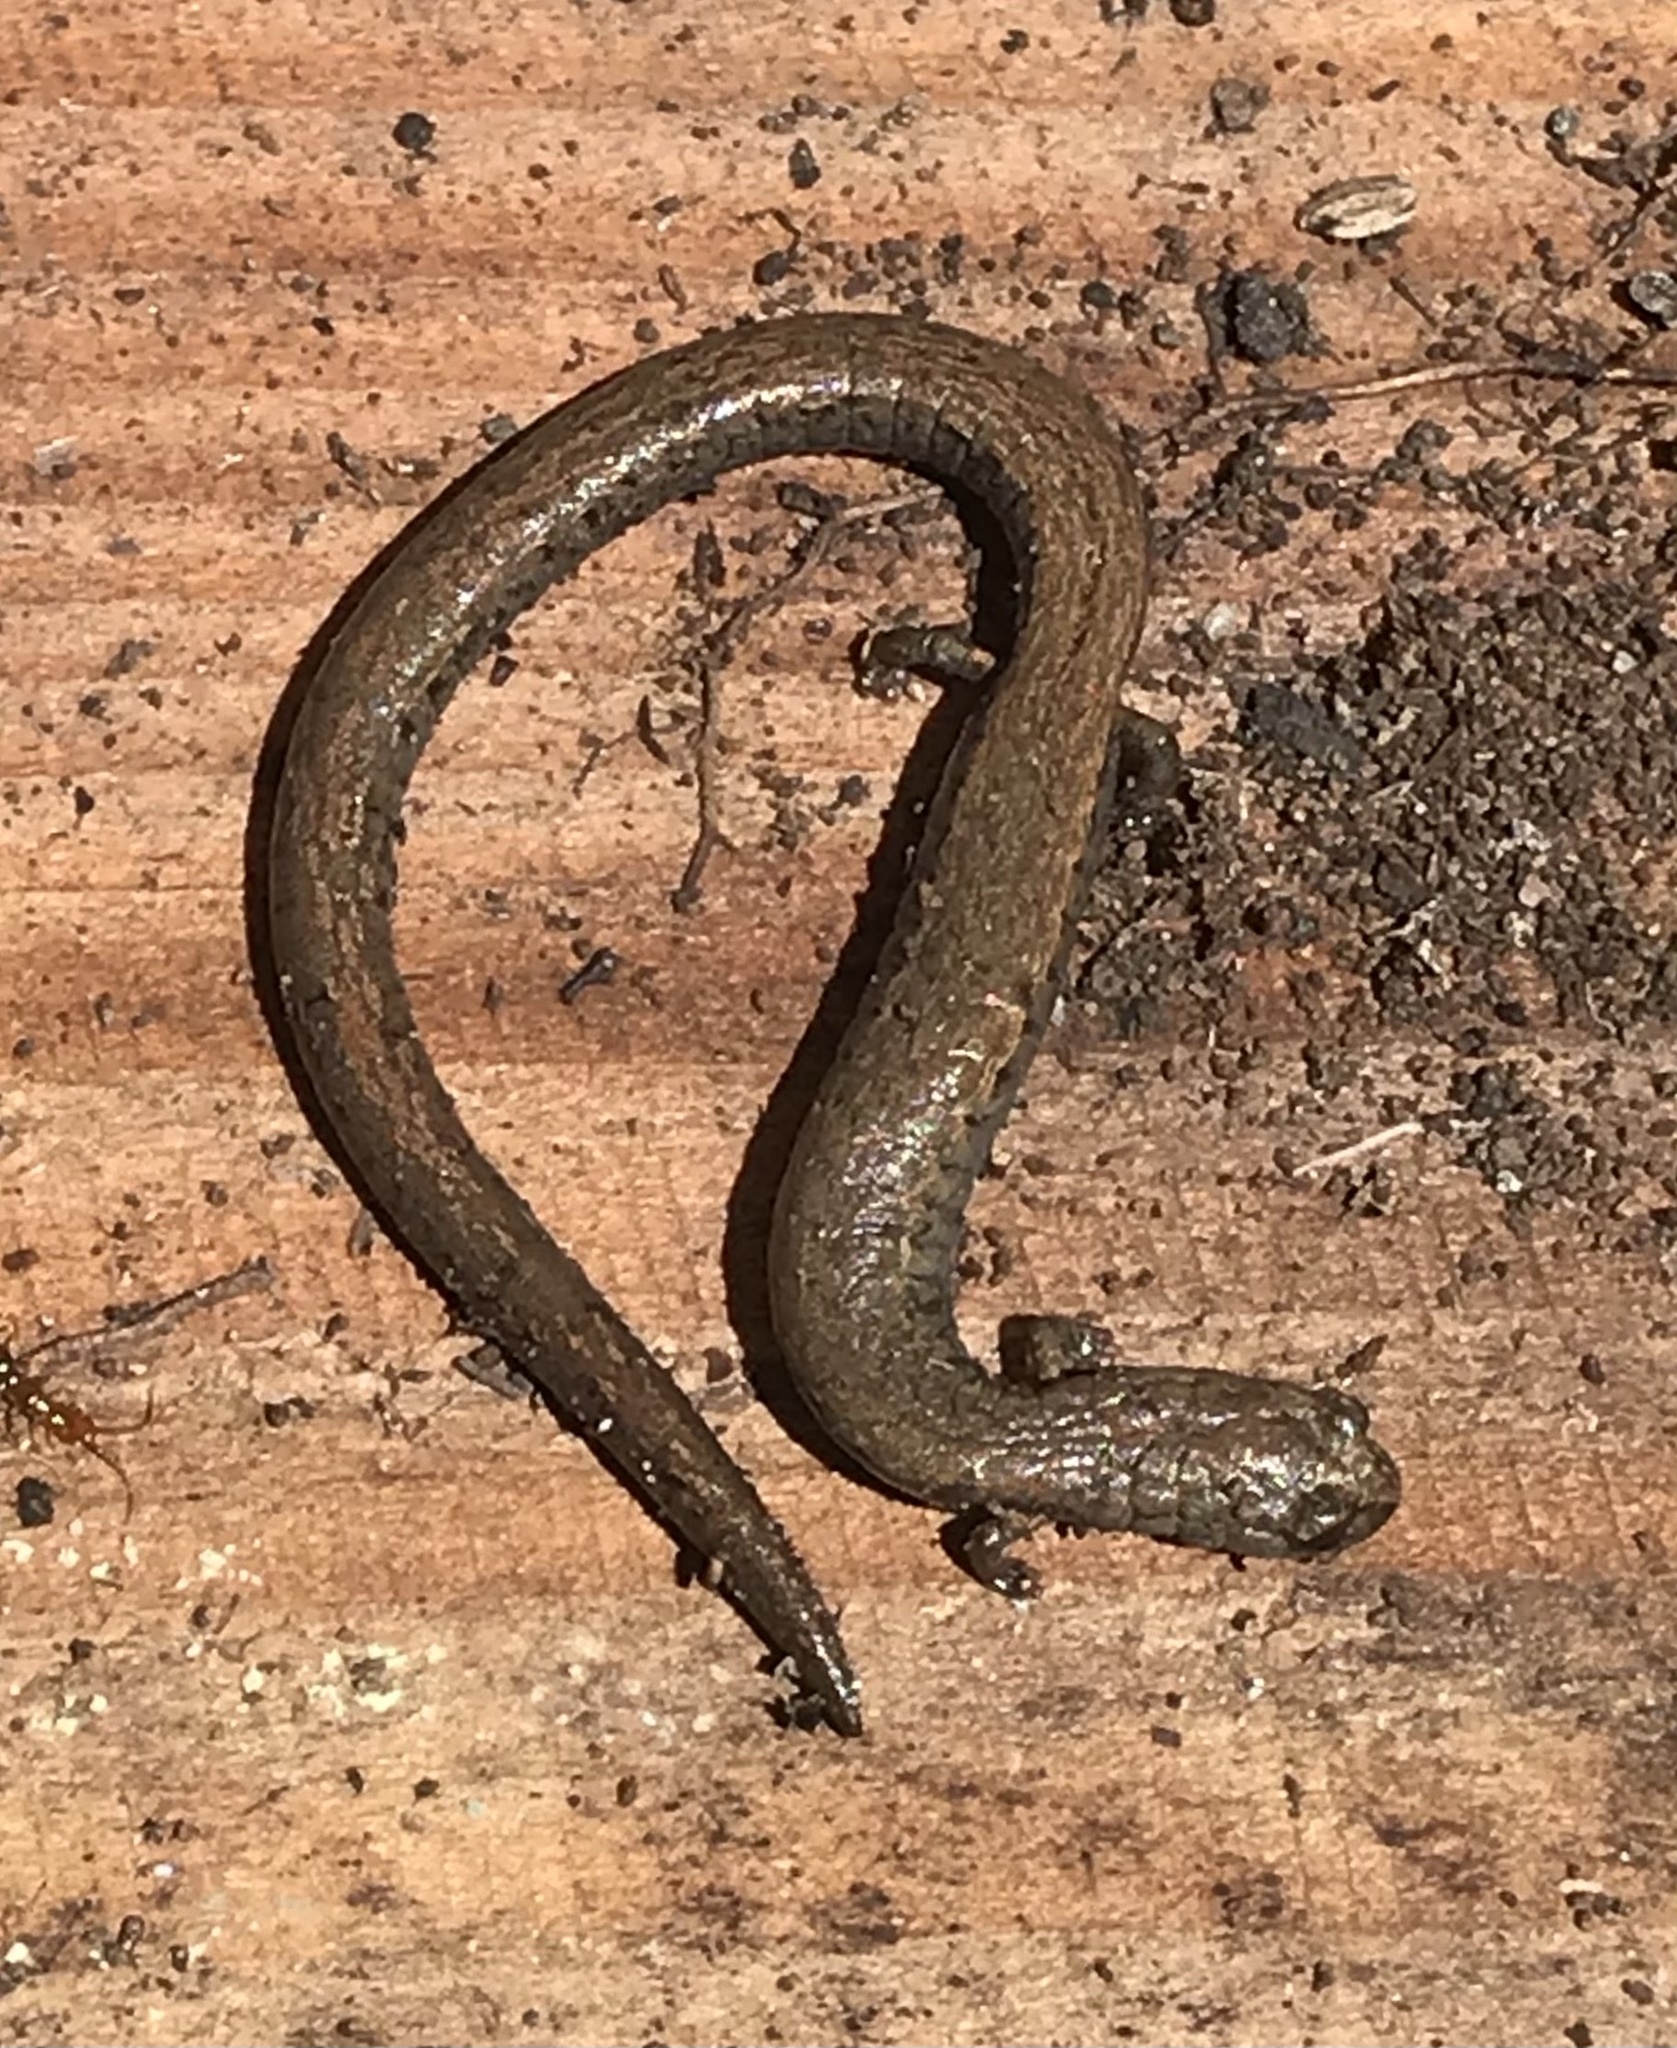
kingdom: Animalia
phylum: Chordata
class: Amphibia
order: Caudata
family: Plethodontidae
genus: Batrachoseps
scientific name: Batrachoseps nigriventris
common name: Black-bellied slender salamander
